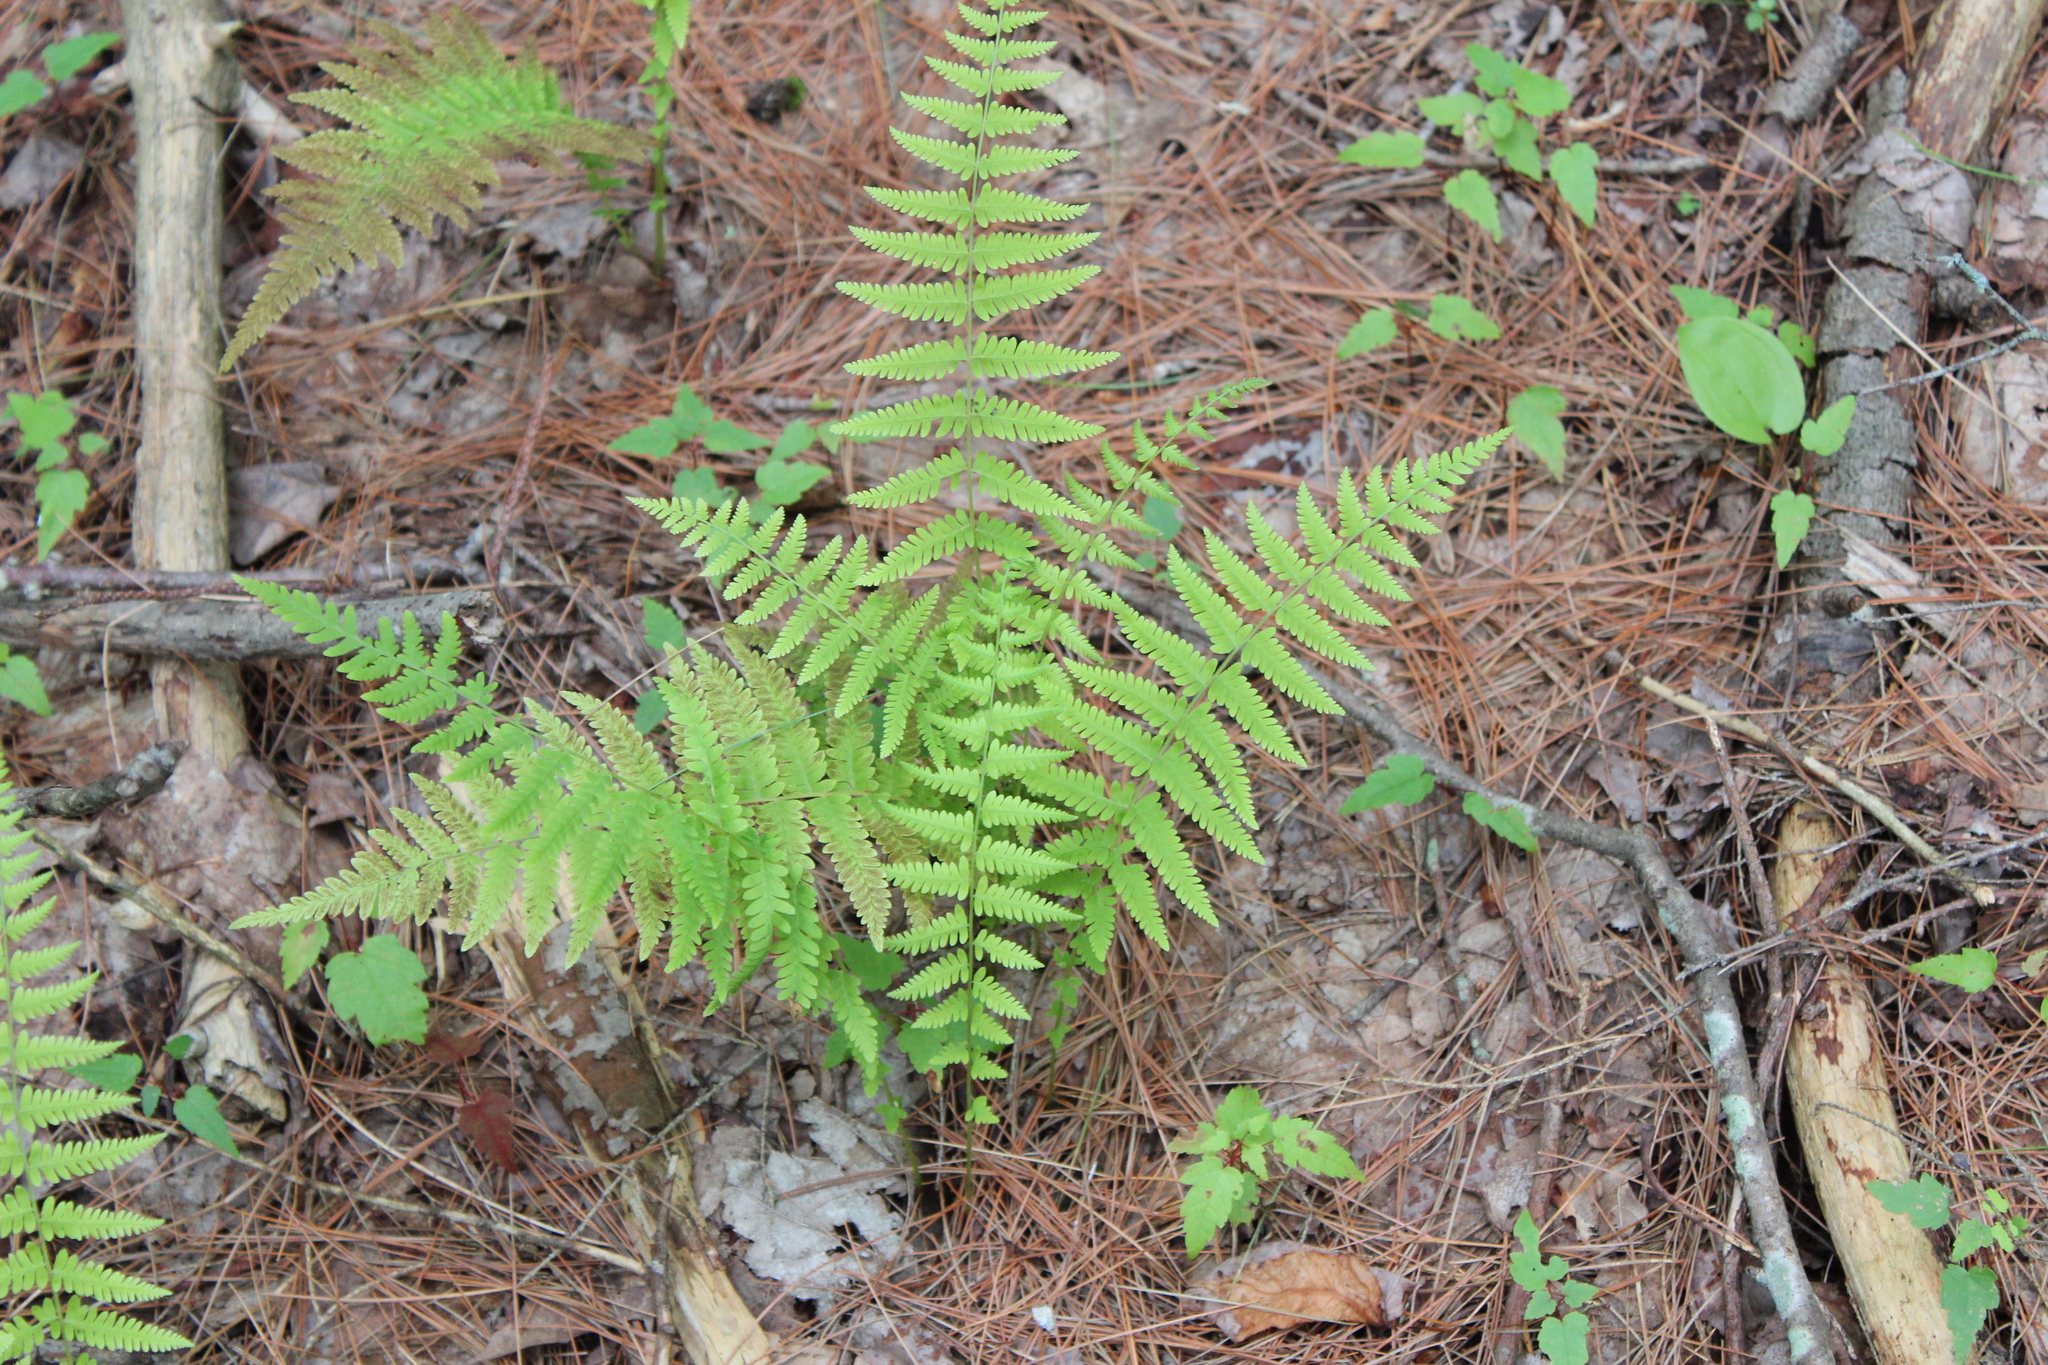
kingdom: Plantae
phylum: Tracheophyta
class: Polypodiopsida
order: Polypodiales
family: Thelypteridaceae
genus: Amauropelta
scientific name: Amauropelta noveboracensis
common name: New york fern
